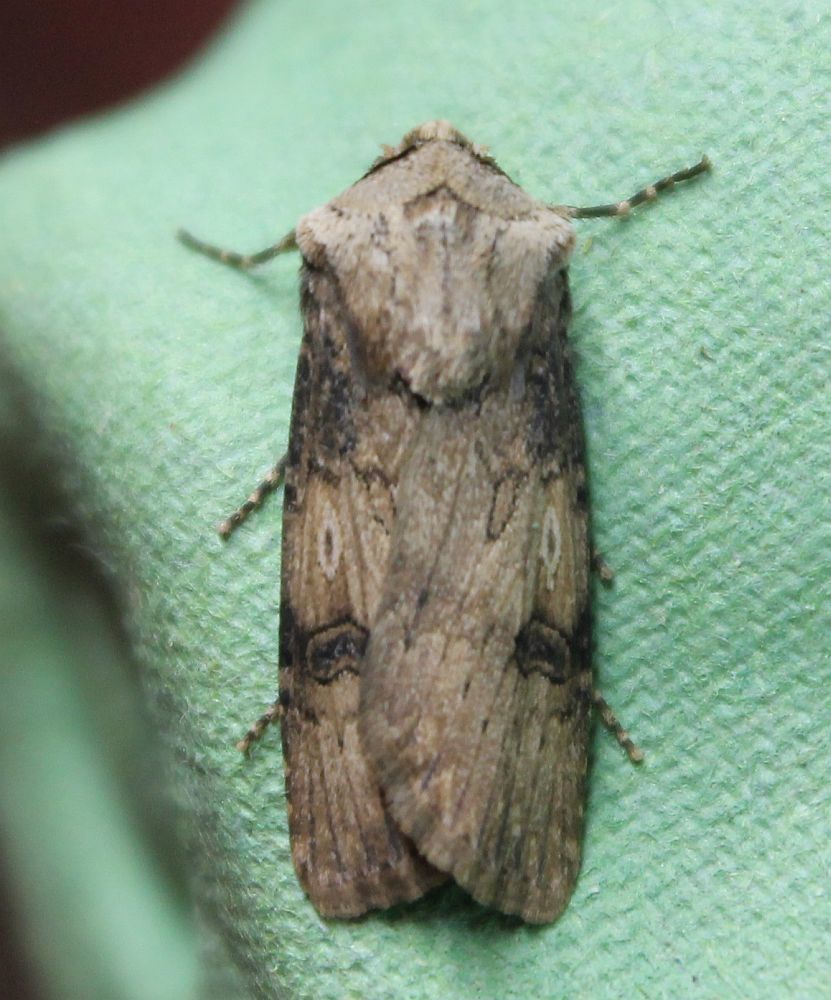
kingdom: Animalia
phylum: Arthropoda
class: Insecta
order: Lepidoptera
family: Noctuidae
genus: Agrotis
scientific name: Agrotis puta
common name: Shuttle-shaped dart
